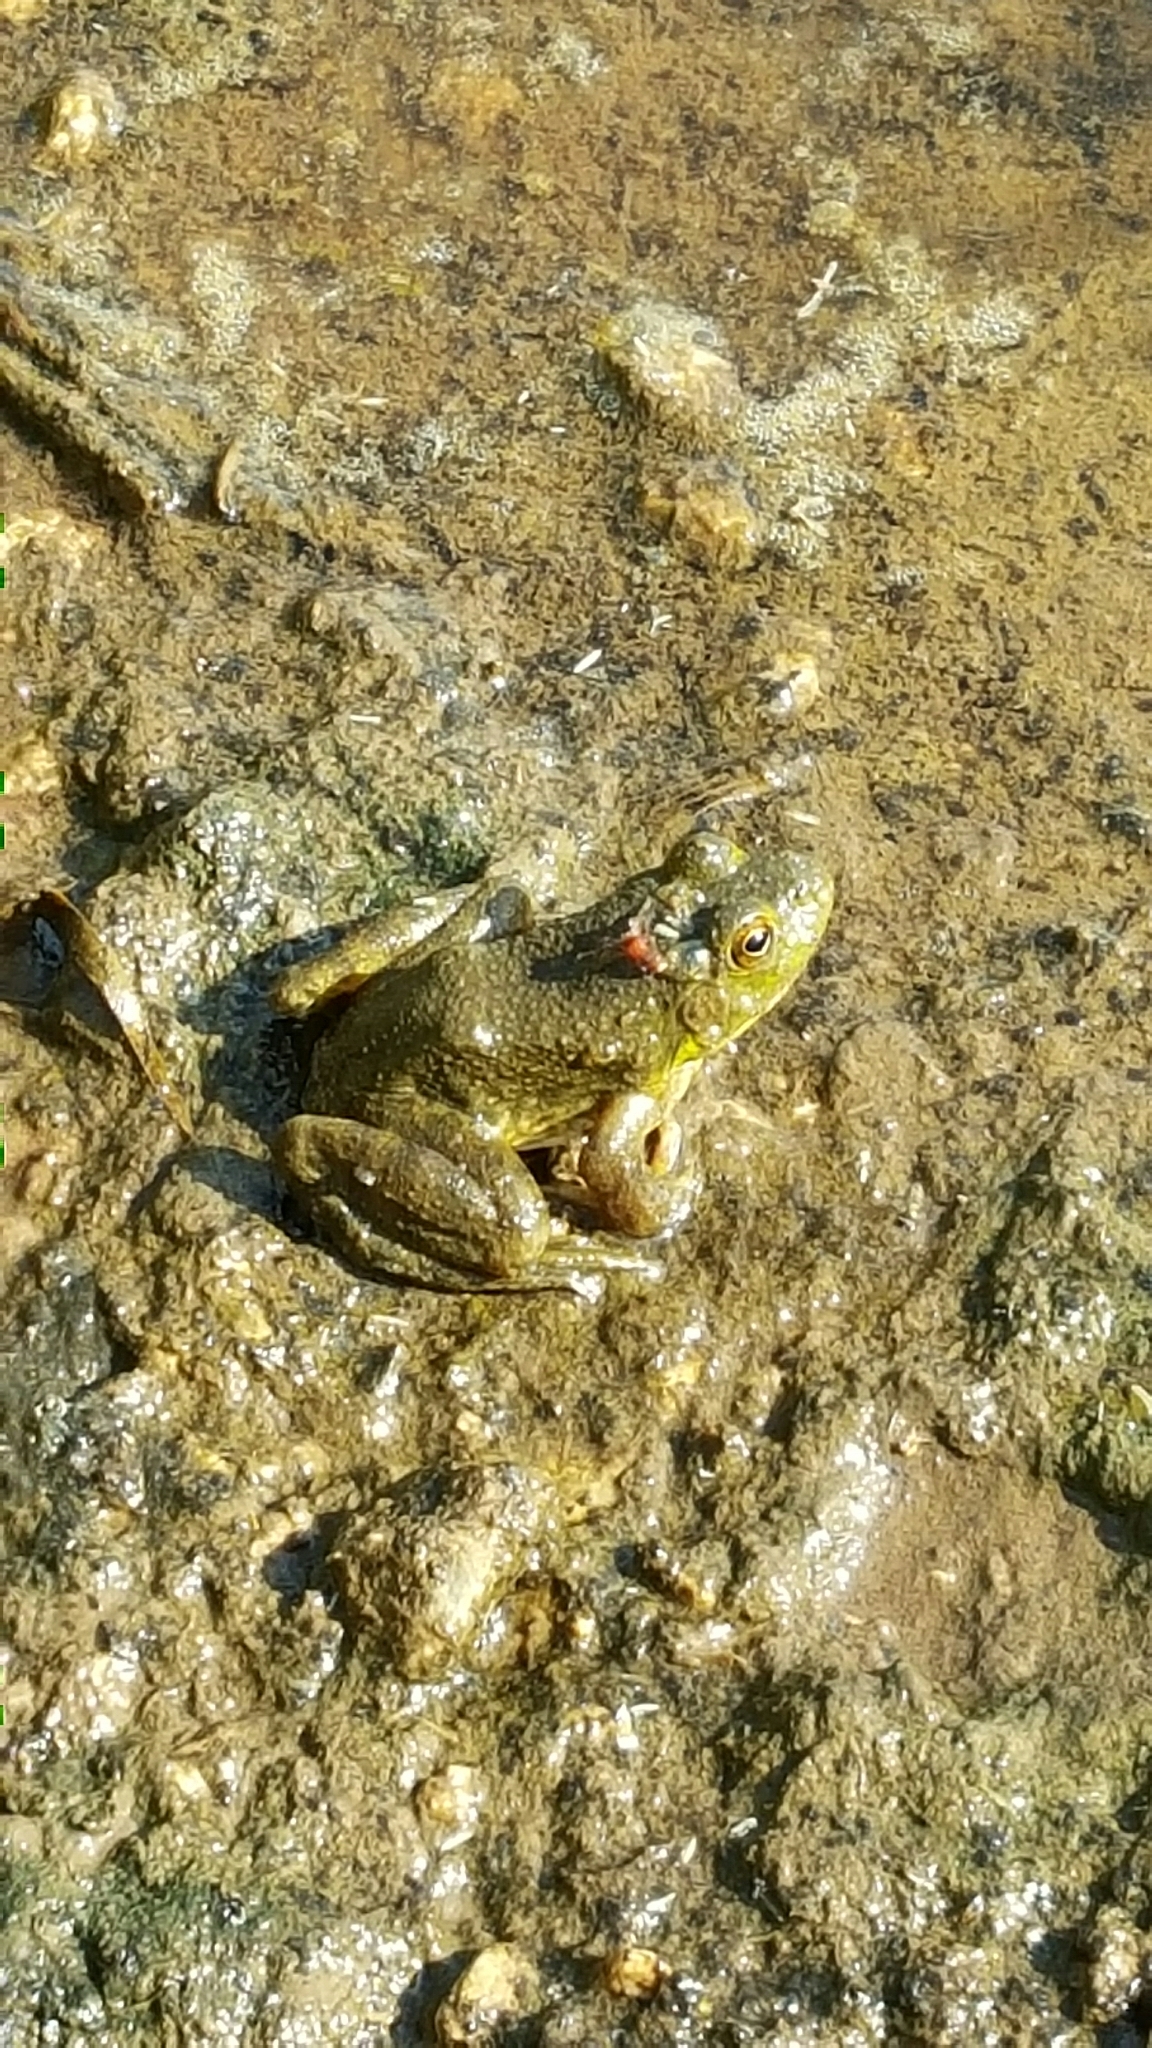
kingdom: Animalia
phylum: Chordata
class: Amphibia
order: Anura
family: Ranidae
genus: Lithobates
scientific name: Lithobates catesbeianus
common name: American bullfrog
